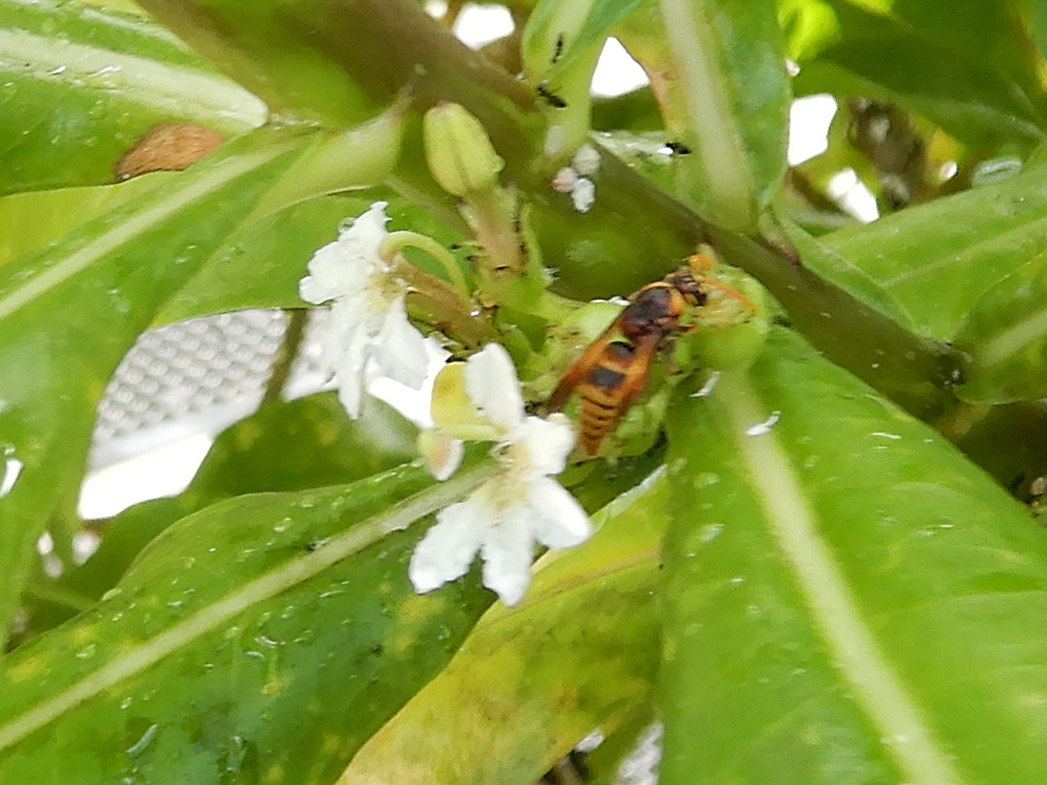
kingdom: Animalia
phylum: Arthropoda
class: Insecta
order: Hymenoptera
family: Eumenidae
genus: Rhynchium
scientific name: Rhynchium haemorrhoidale
